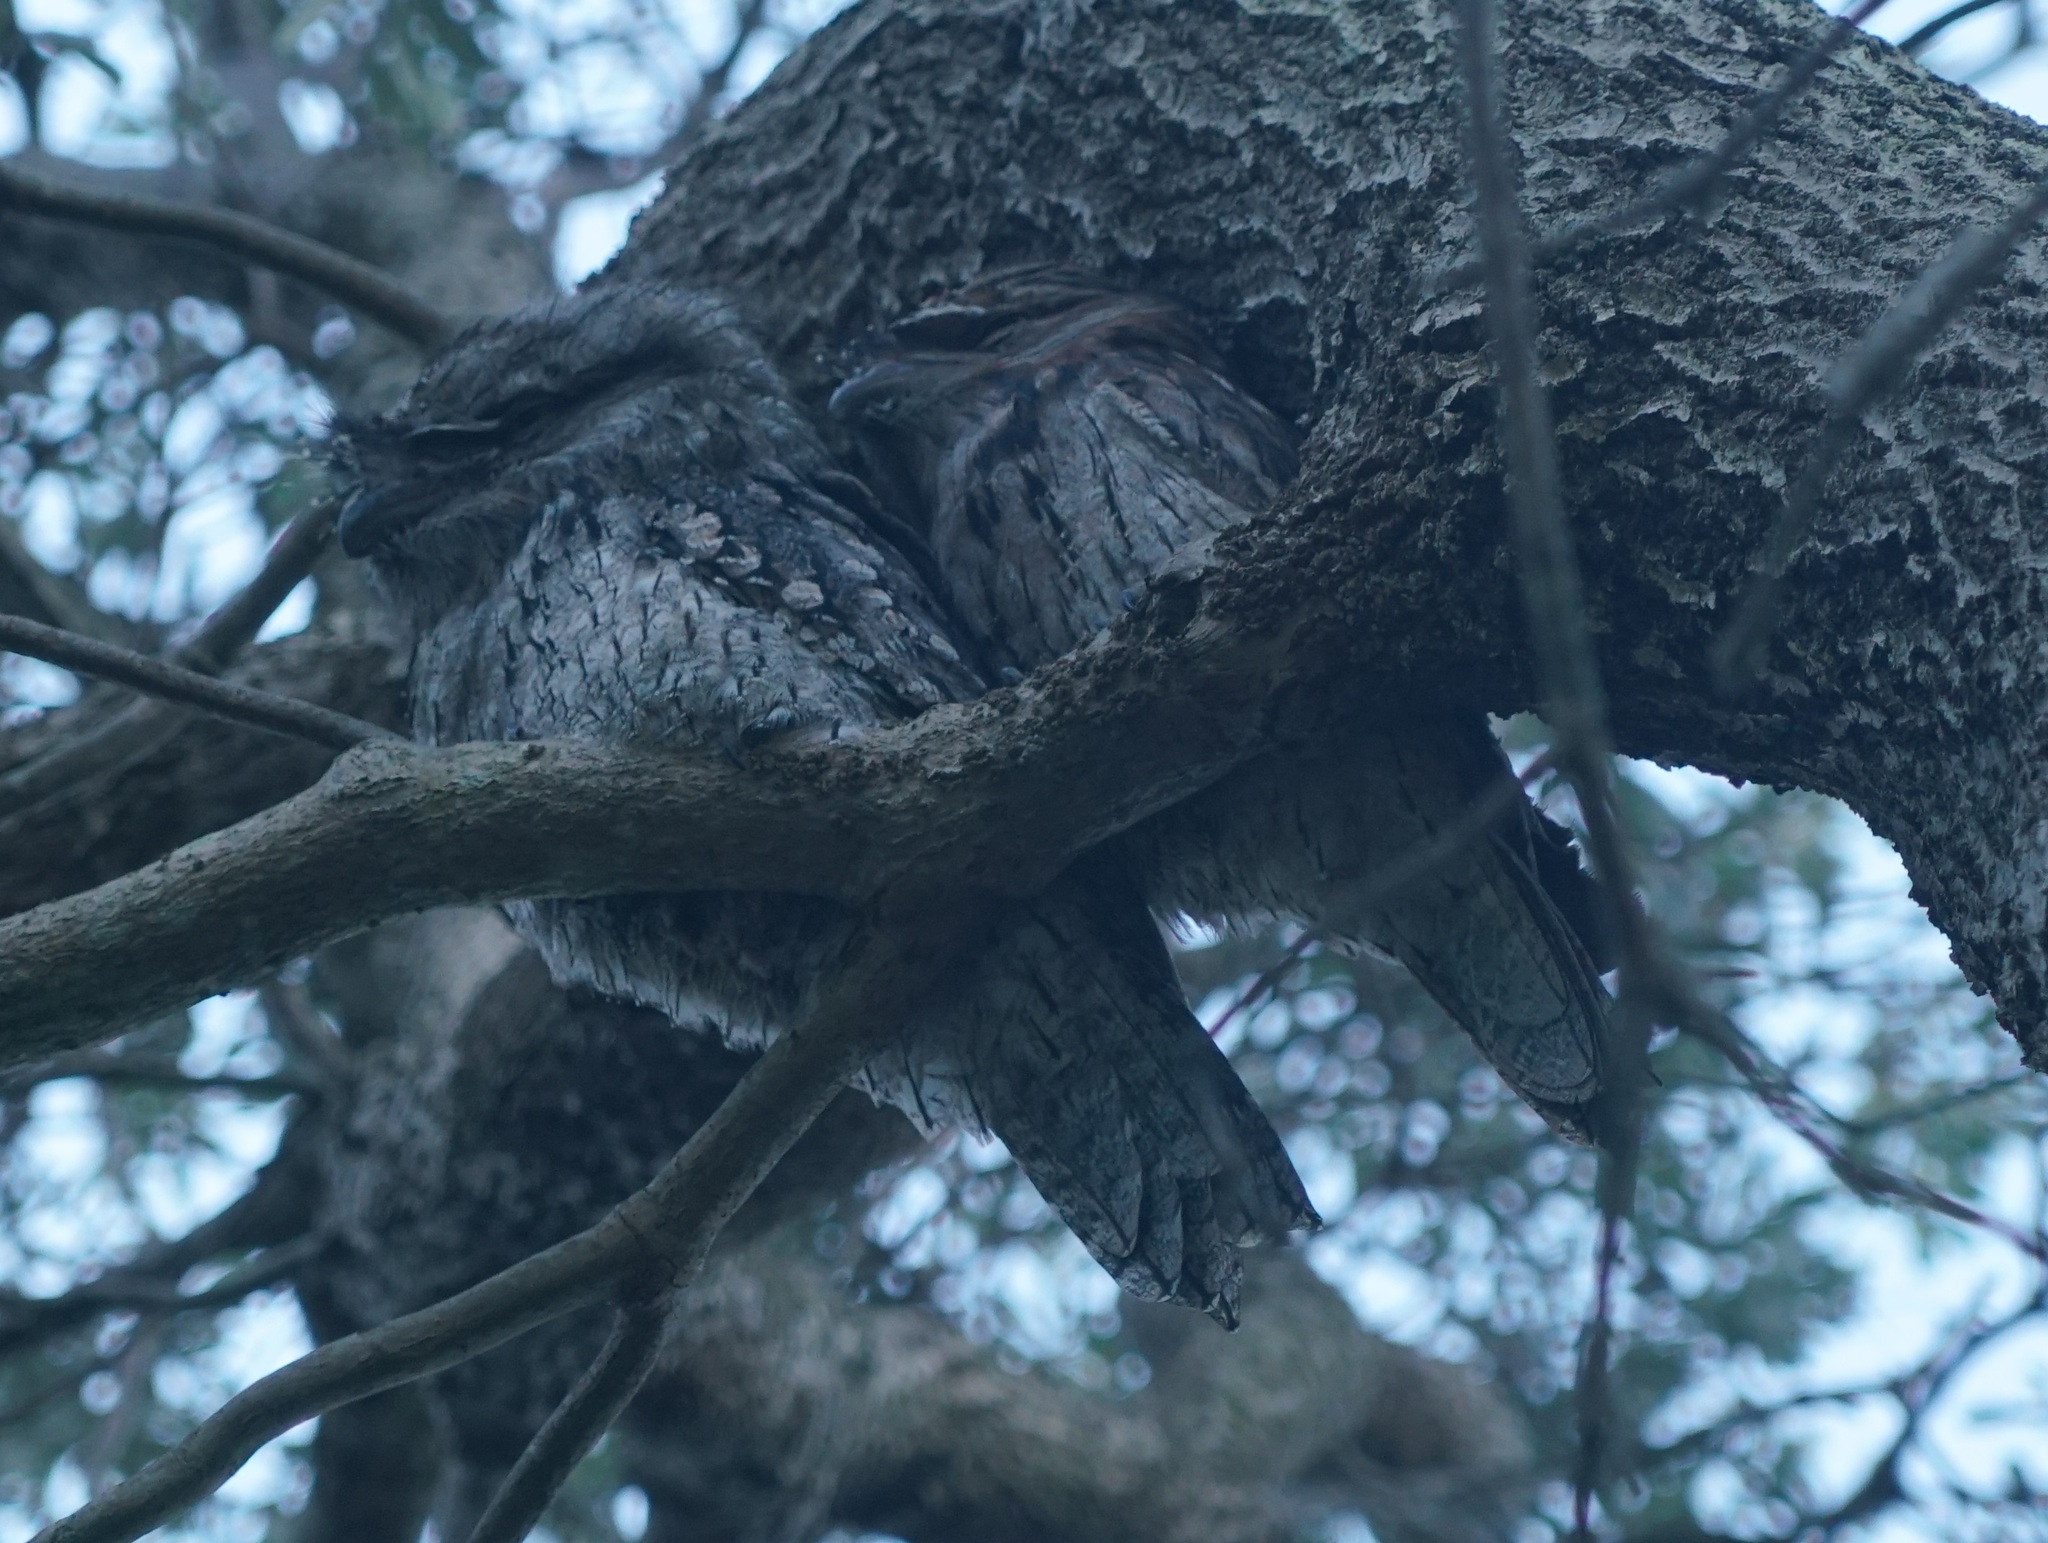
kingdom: Animalia
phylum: Chordata
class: Aves
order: Caprimulgiformes
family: Podargidae
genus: Podargus
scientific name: Podargus strigoides
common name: Tawny frogmouth
